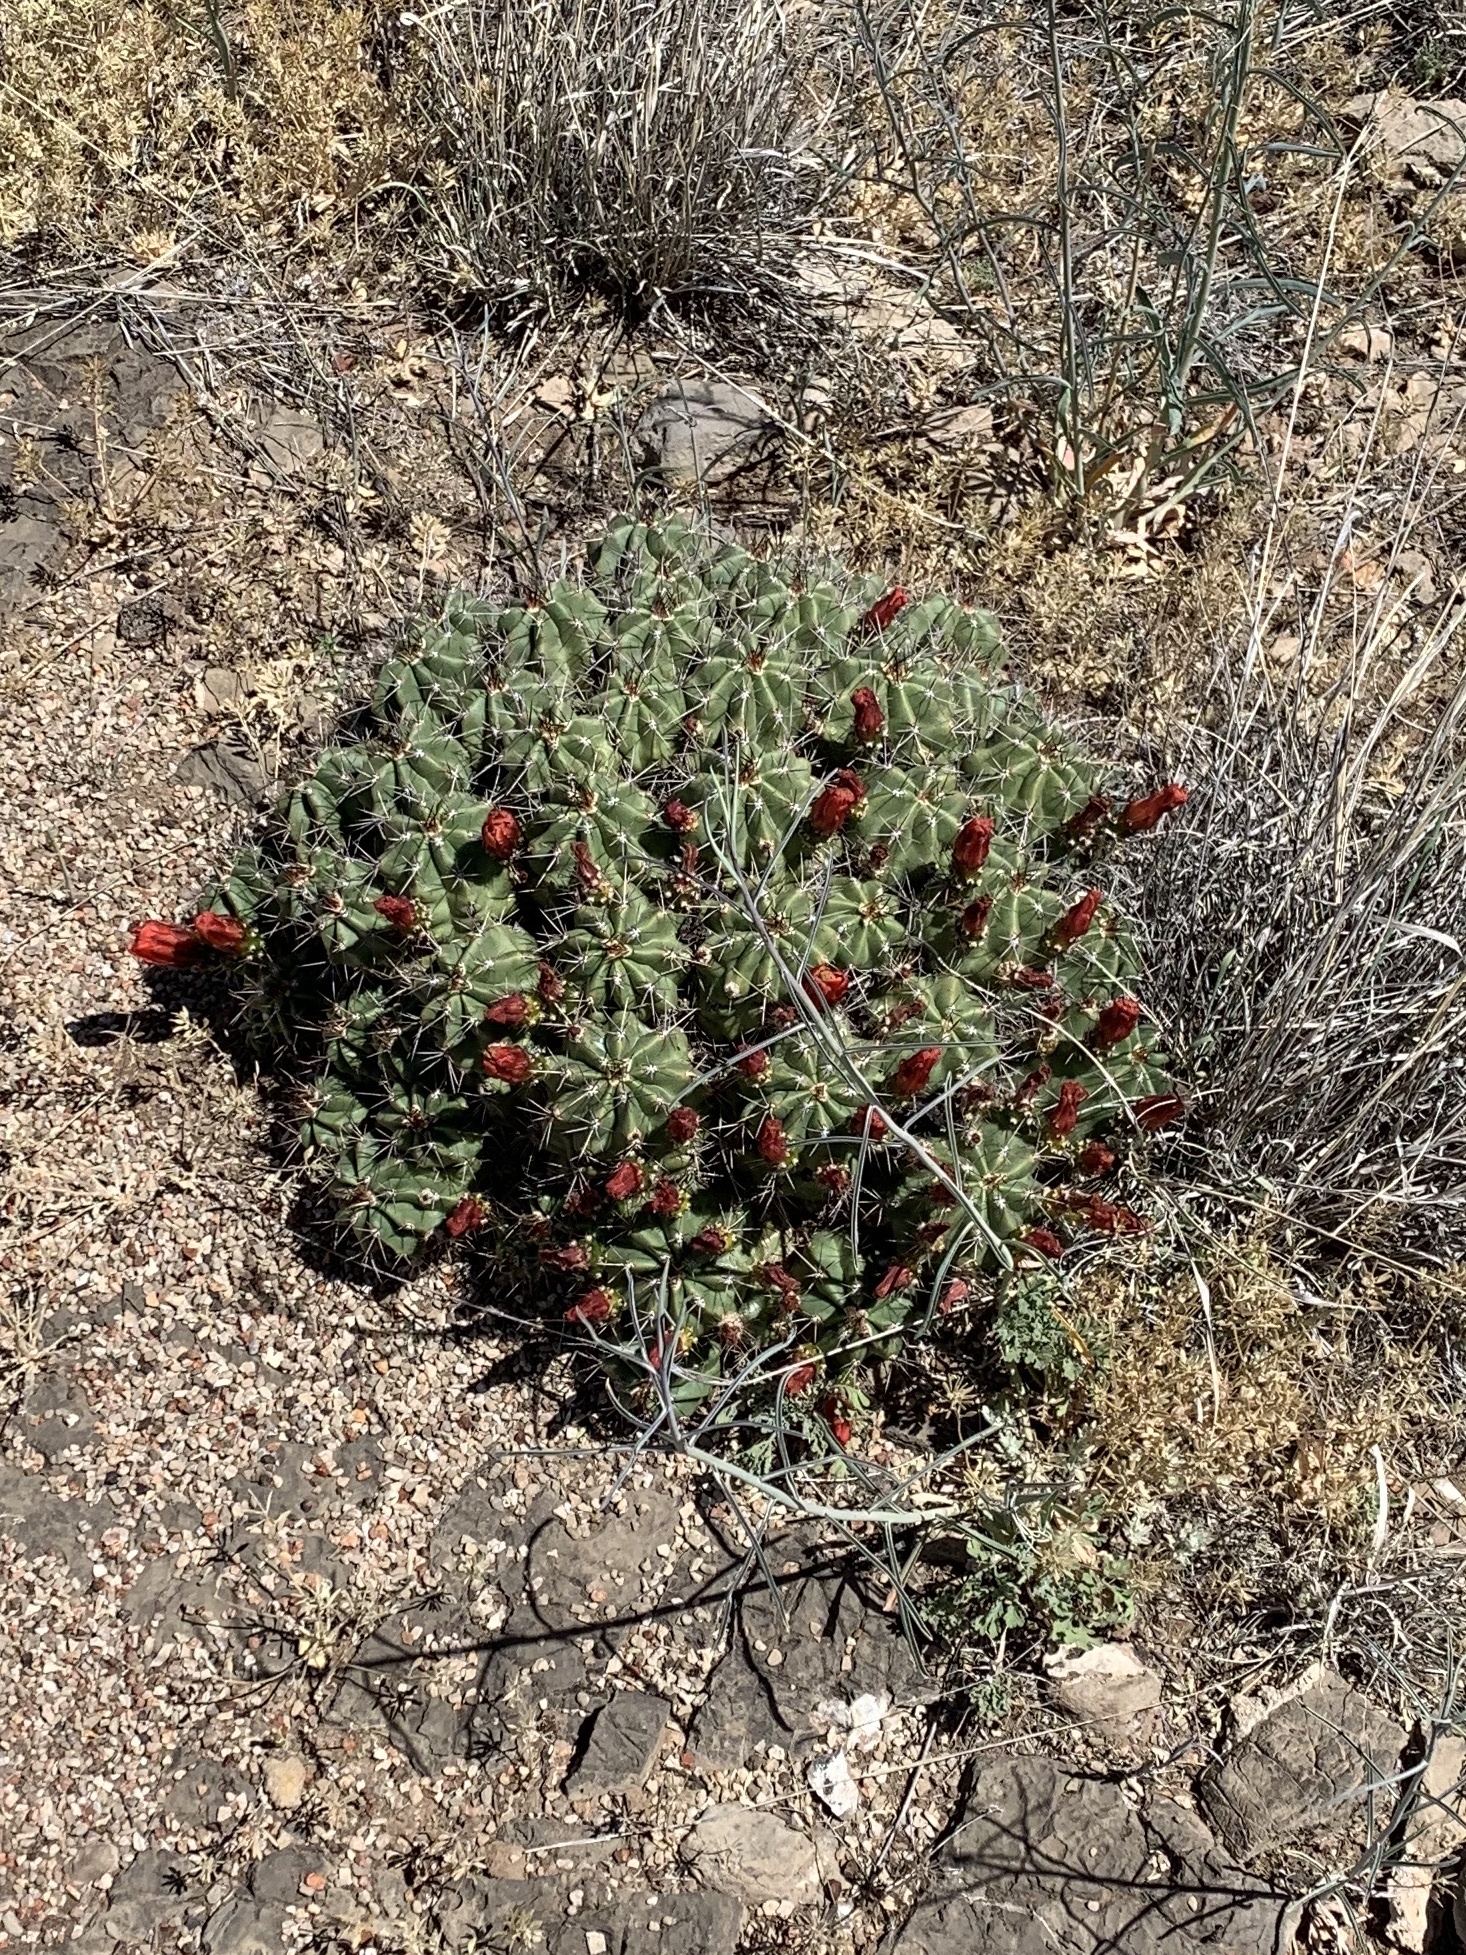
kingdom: Plantae
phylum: Tracheophyta
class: Magnoliopsida
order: Caryophyllales
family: Cactaceae
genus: Echinocereus
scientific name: Echinocereus coccineus
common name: Scarlet hedgehog cactus
